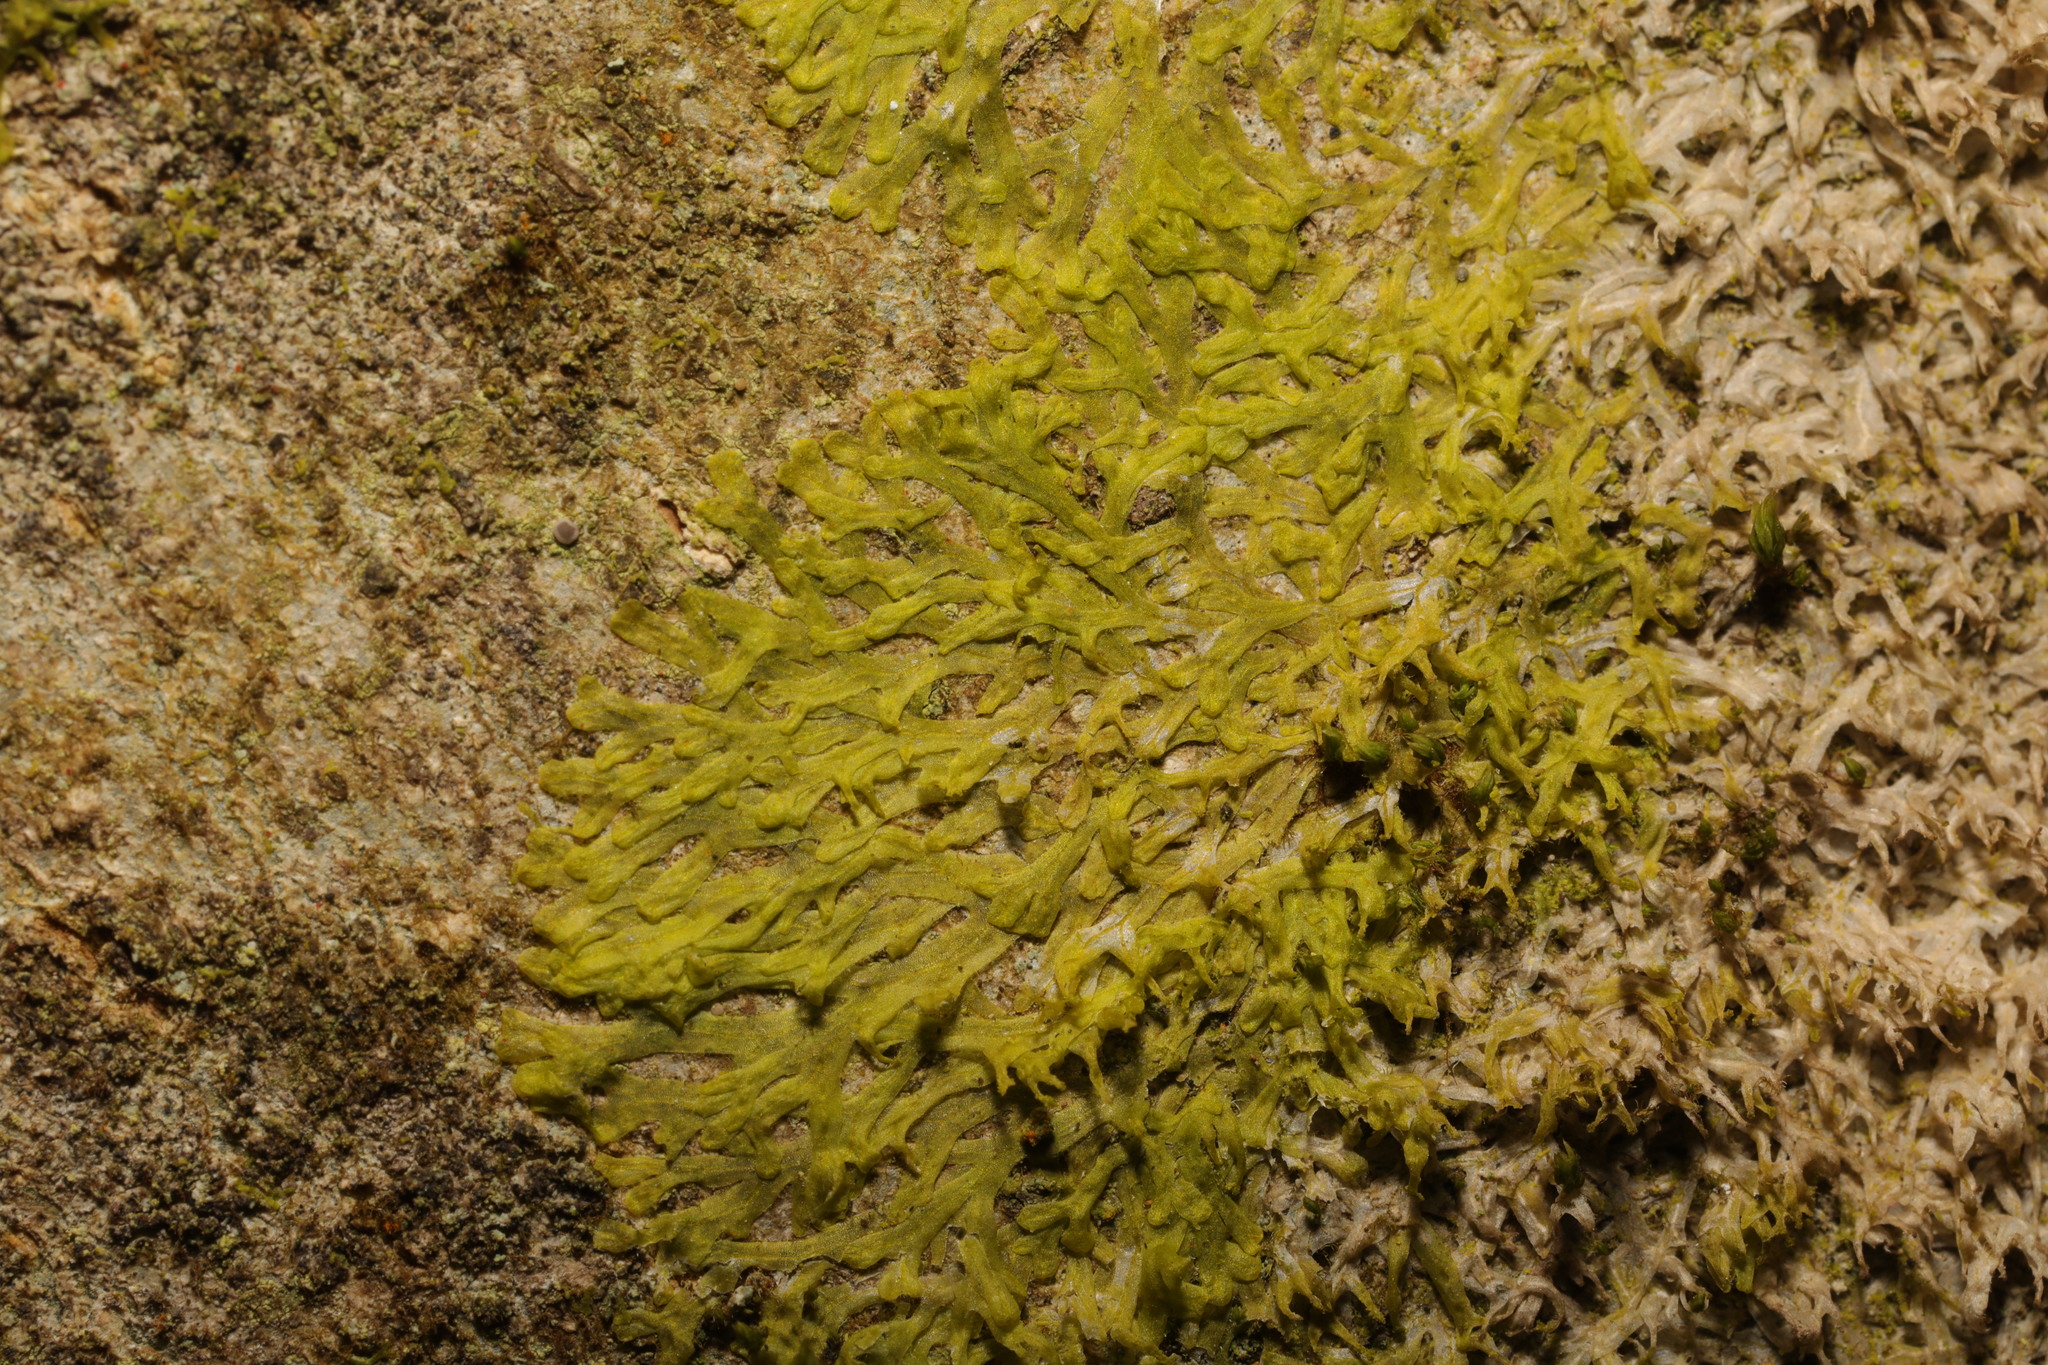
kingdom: Plantae
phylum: Marchantiophyta
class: Jungermanniopsida
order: Metzgeriales
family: Metzgeriaceae
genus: Metzgeria
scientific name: Metzgeria furcata
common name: Forked veilwort
